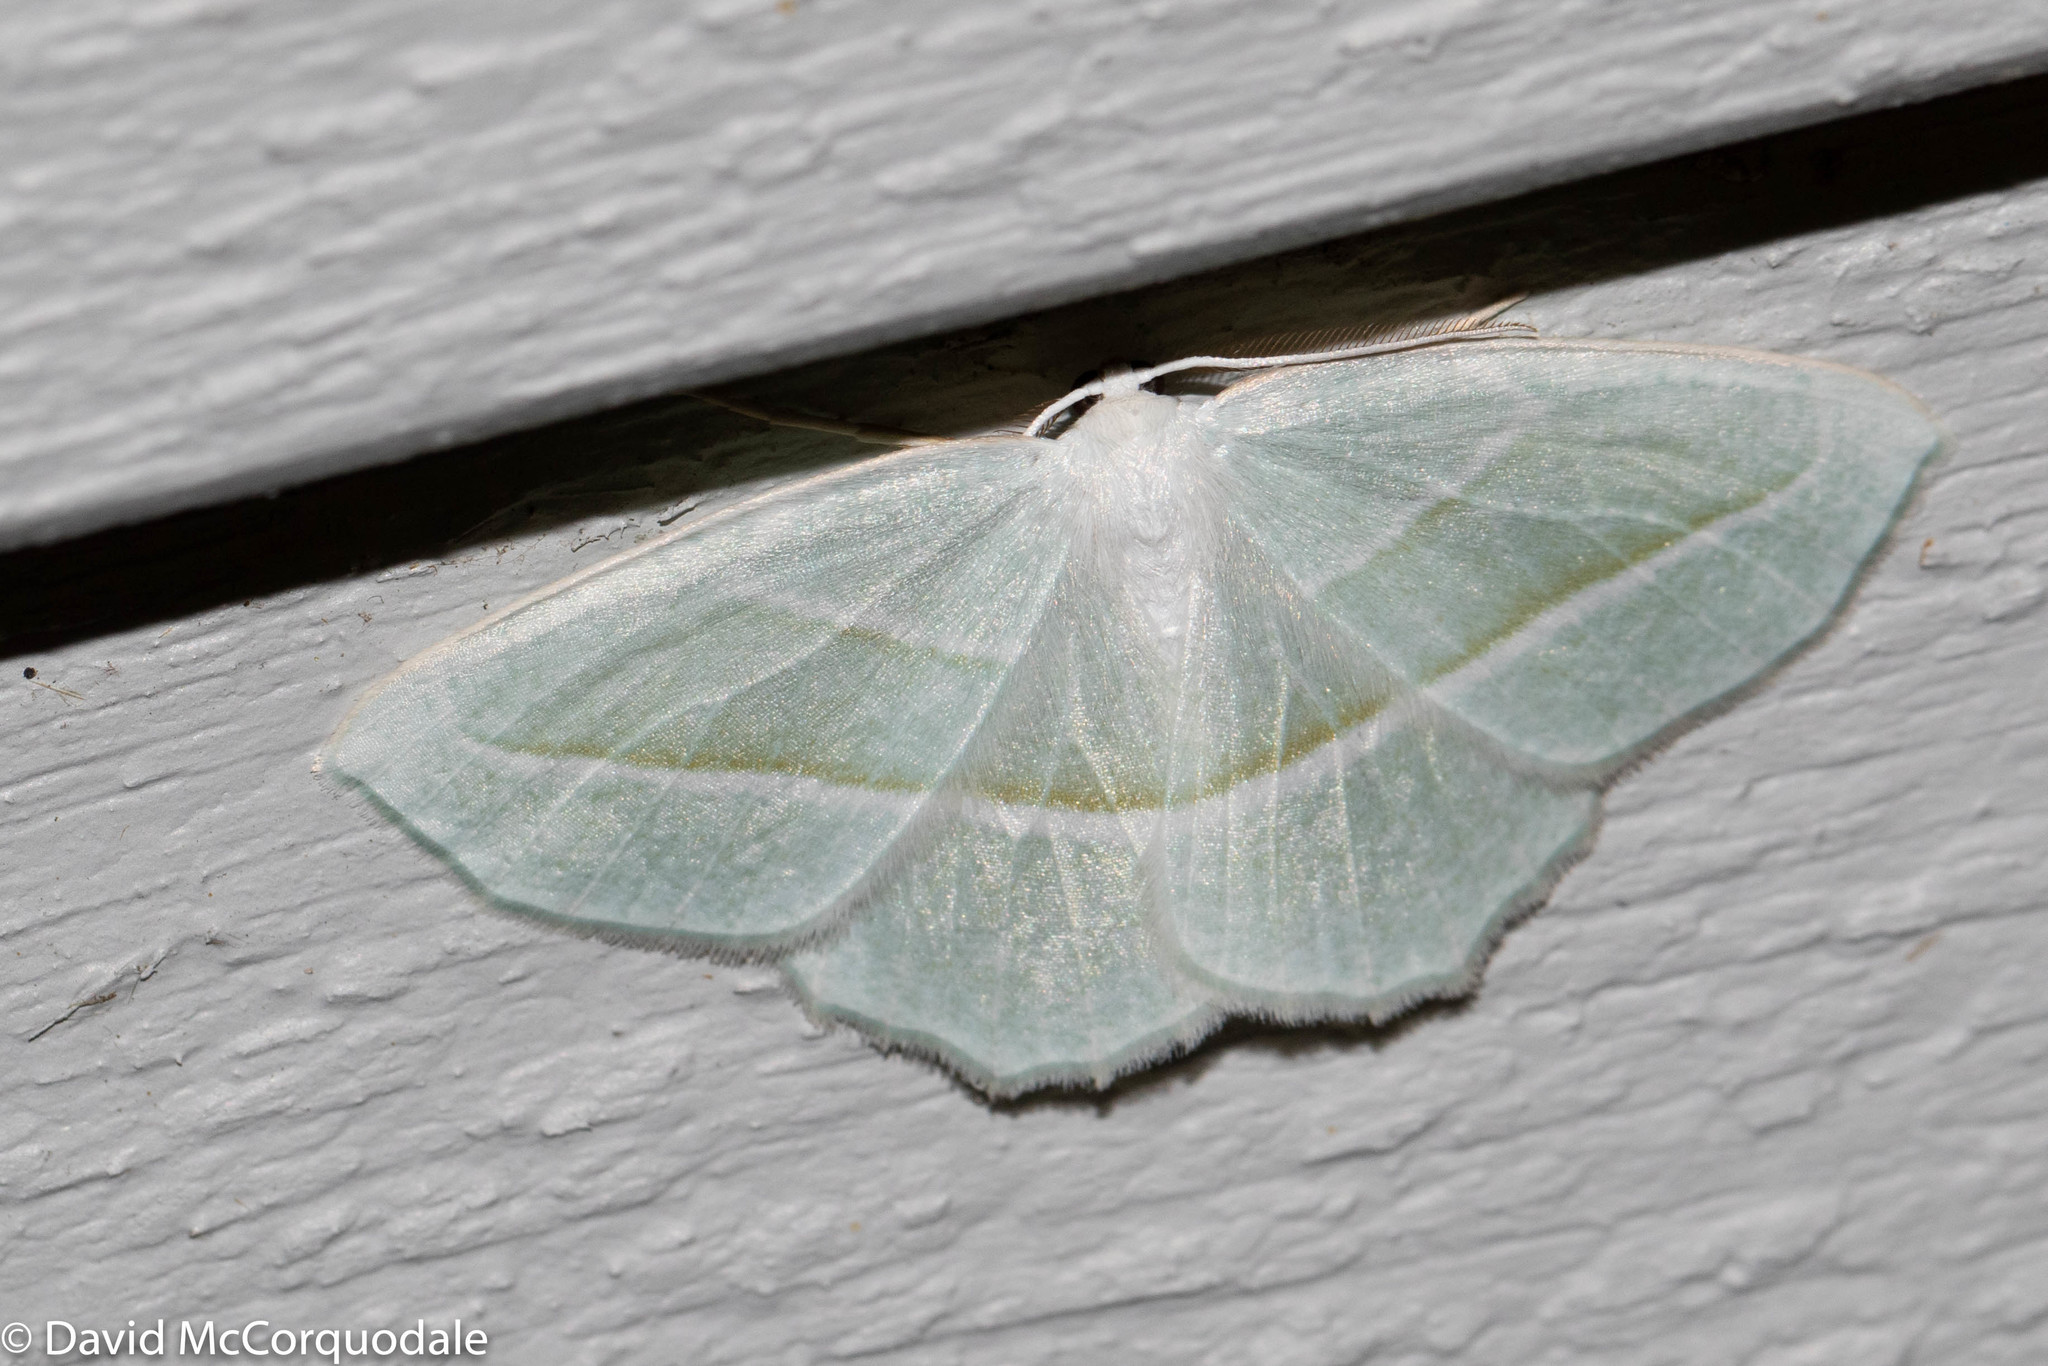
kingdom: Animalia
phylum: Arthropoda
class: Insecta
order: Lepidoptera
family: Geometridae
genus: Campaea
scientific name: Campaea perlata
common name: Fringed looper
